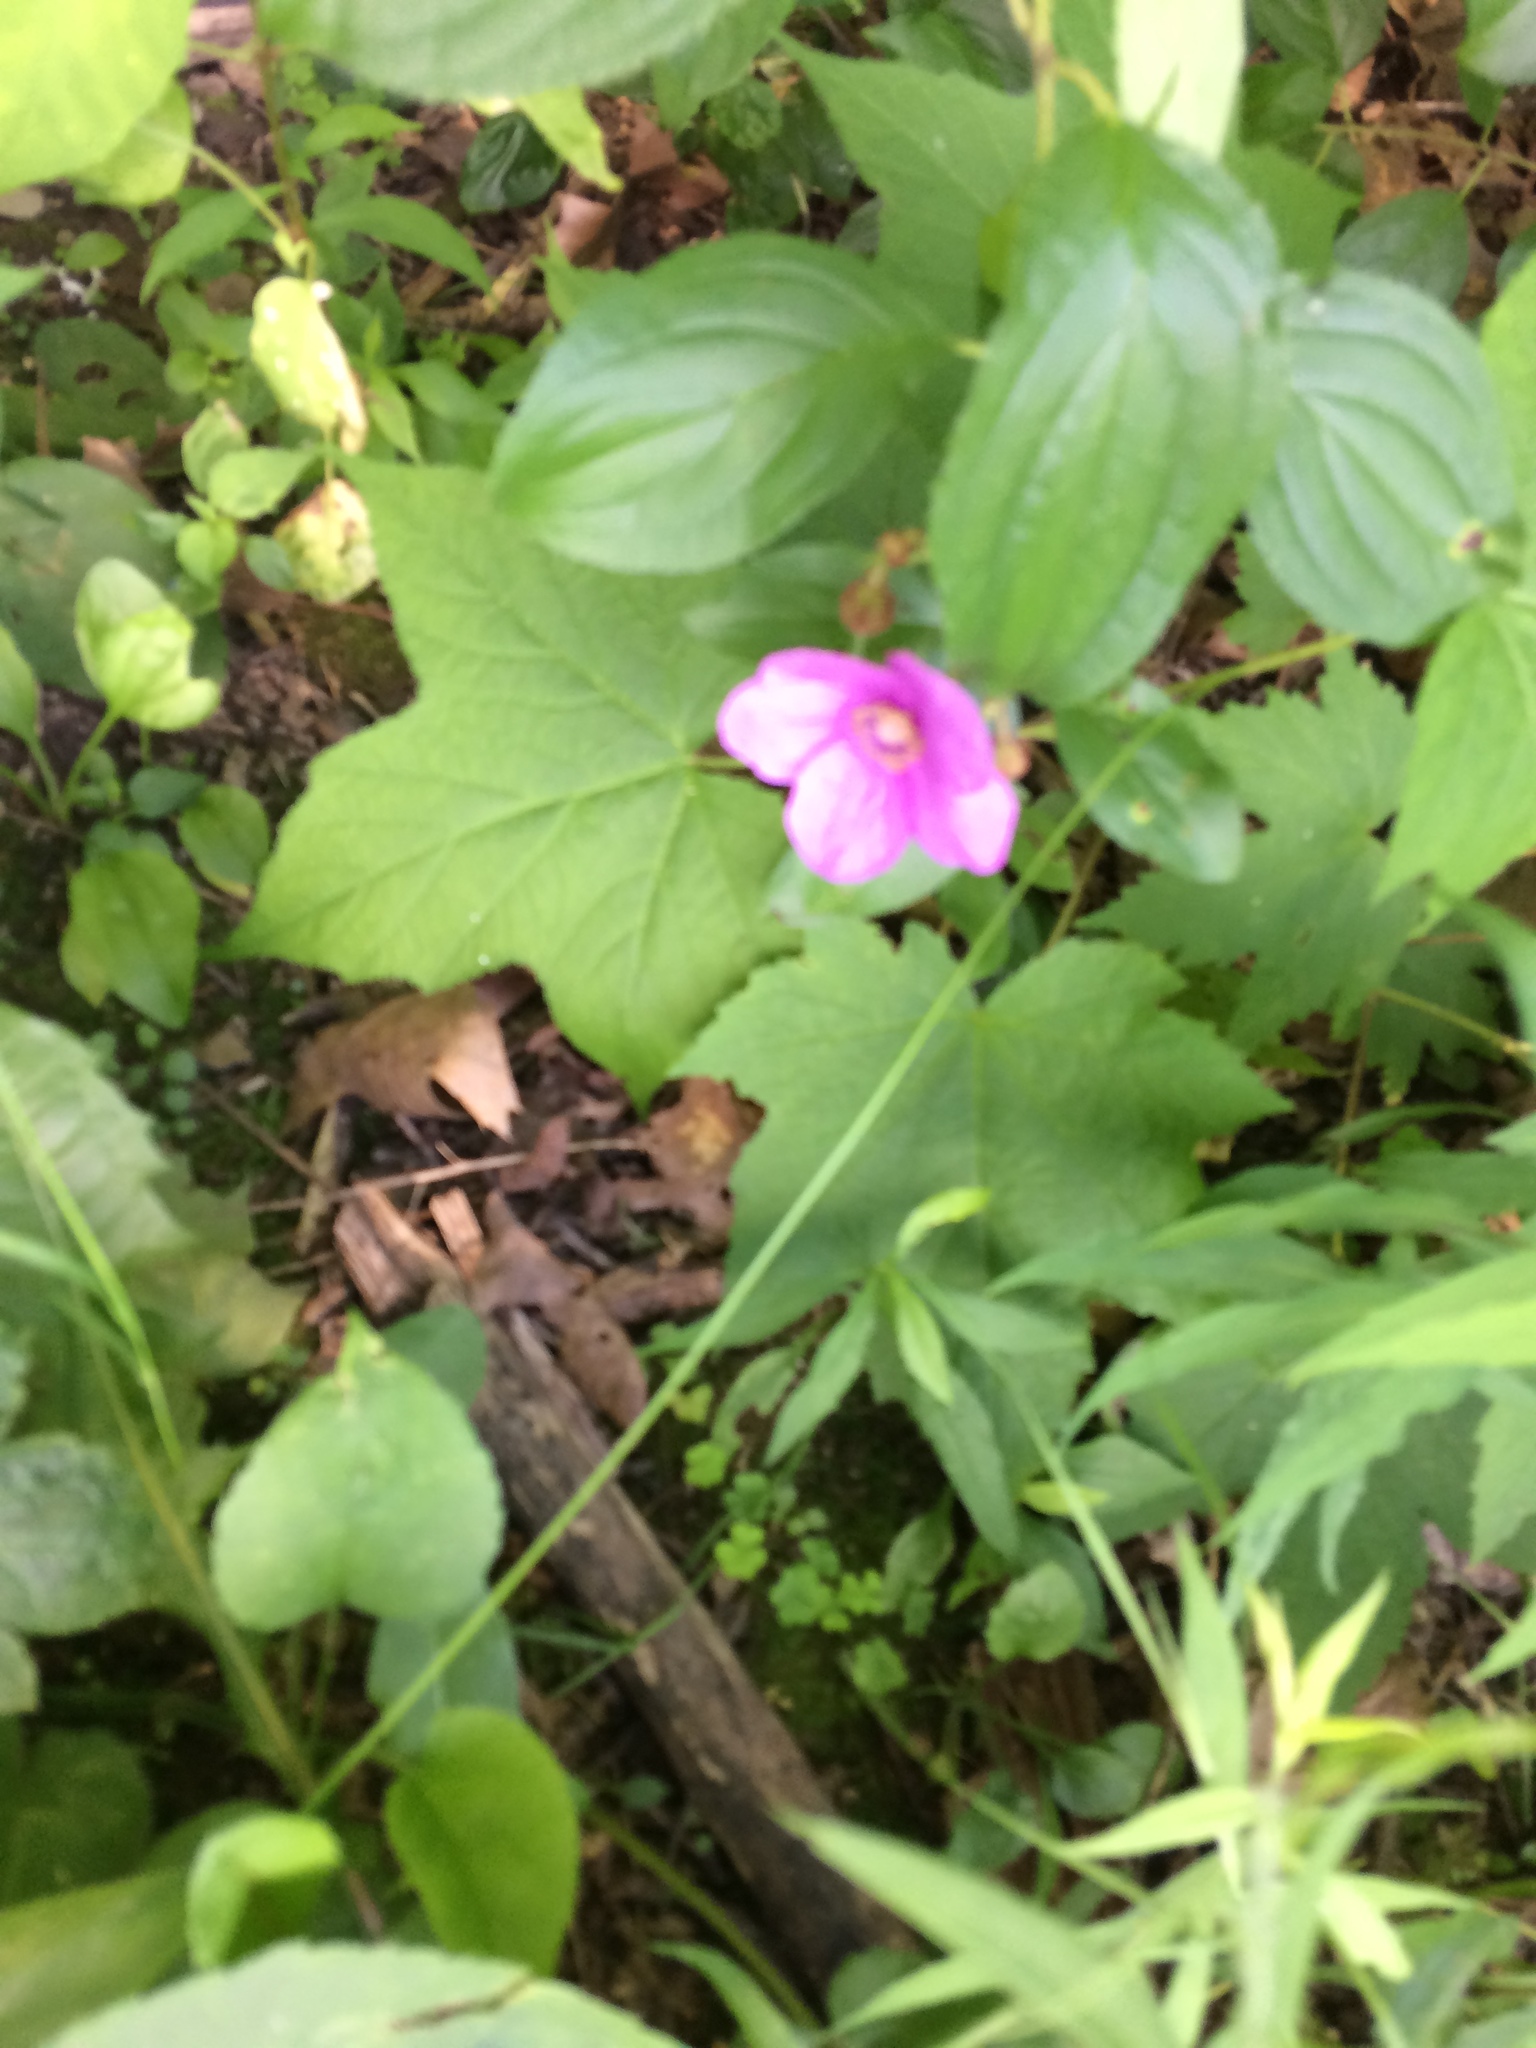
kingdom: Plantae
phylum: Tracheophyta
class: Magnoliopsida
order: Rosales
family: Rosaceae
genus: Rubus
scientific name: Rubus odoratus
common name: Purple-flowered raspberry
